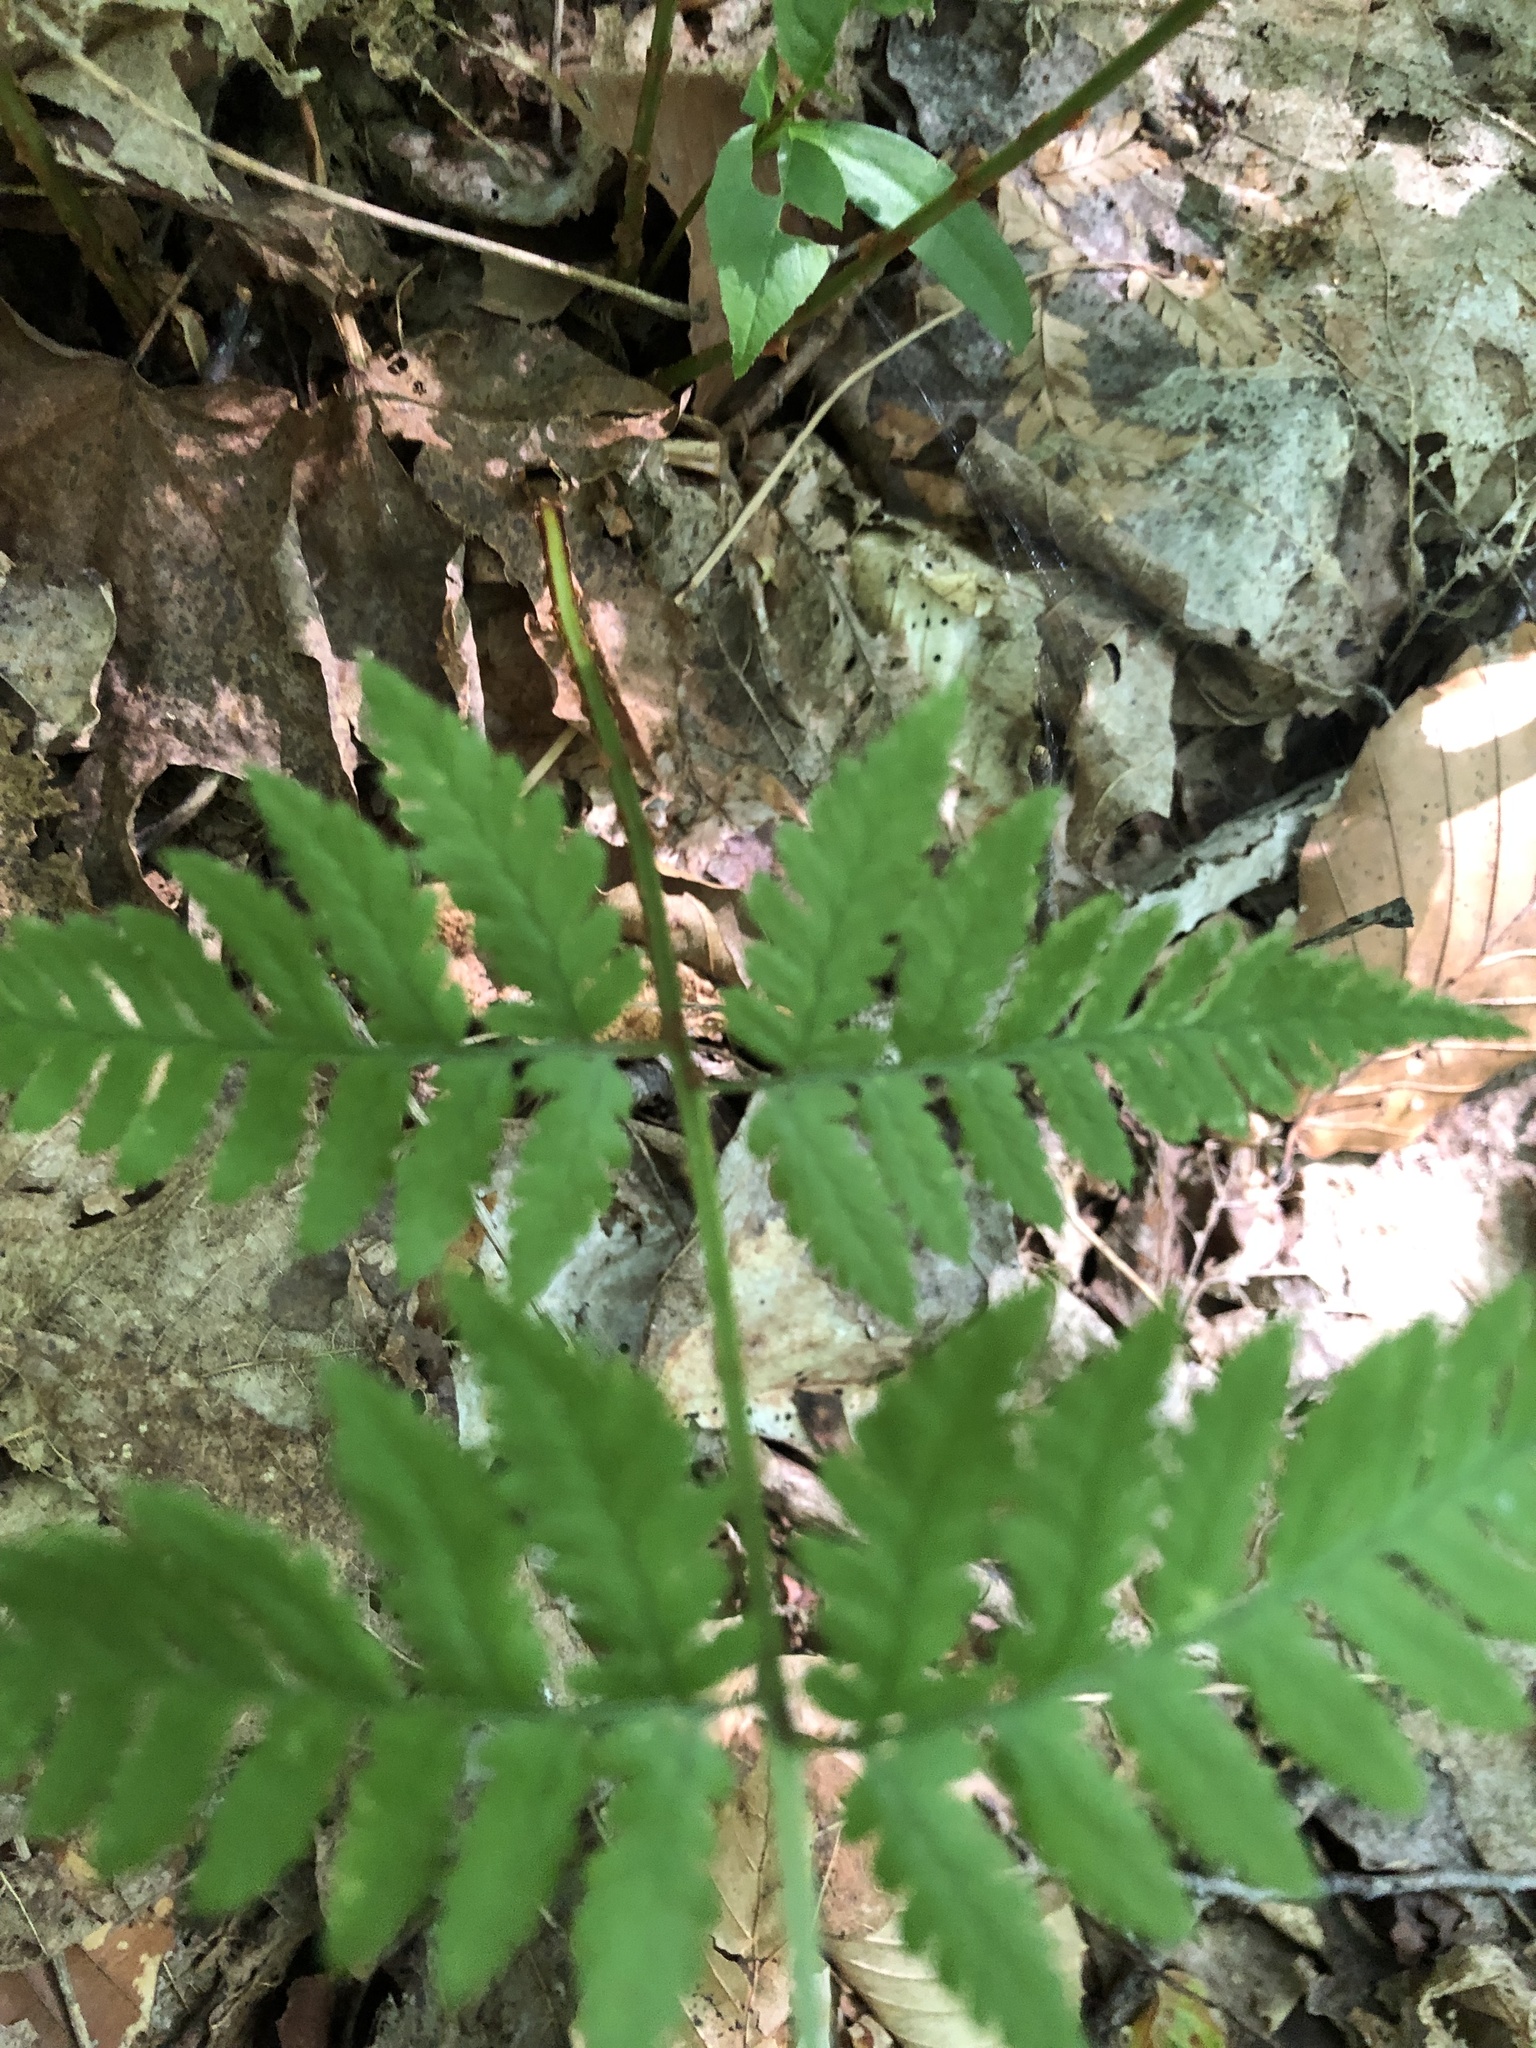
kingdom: Plantae
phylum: Tracheophyta
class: Polypodiopsida
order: Polypodiales
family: Dryopteridaceae
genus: Dryopteris
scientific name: Dryopteris carthusiana
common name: Narrow buckler-fern
